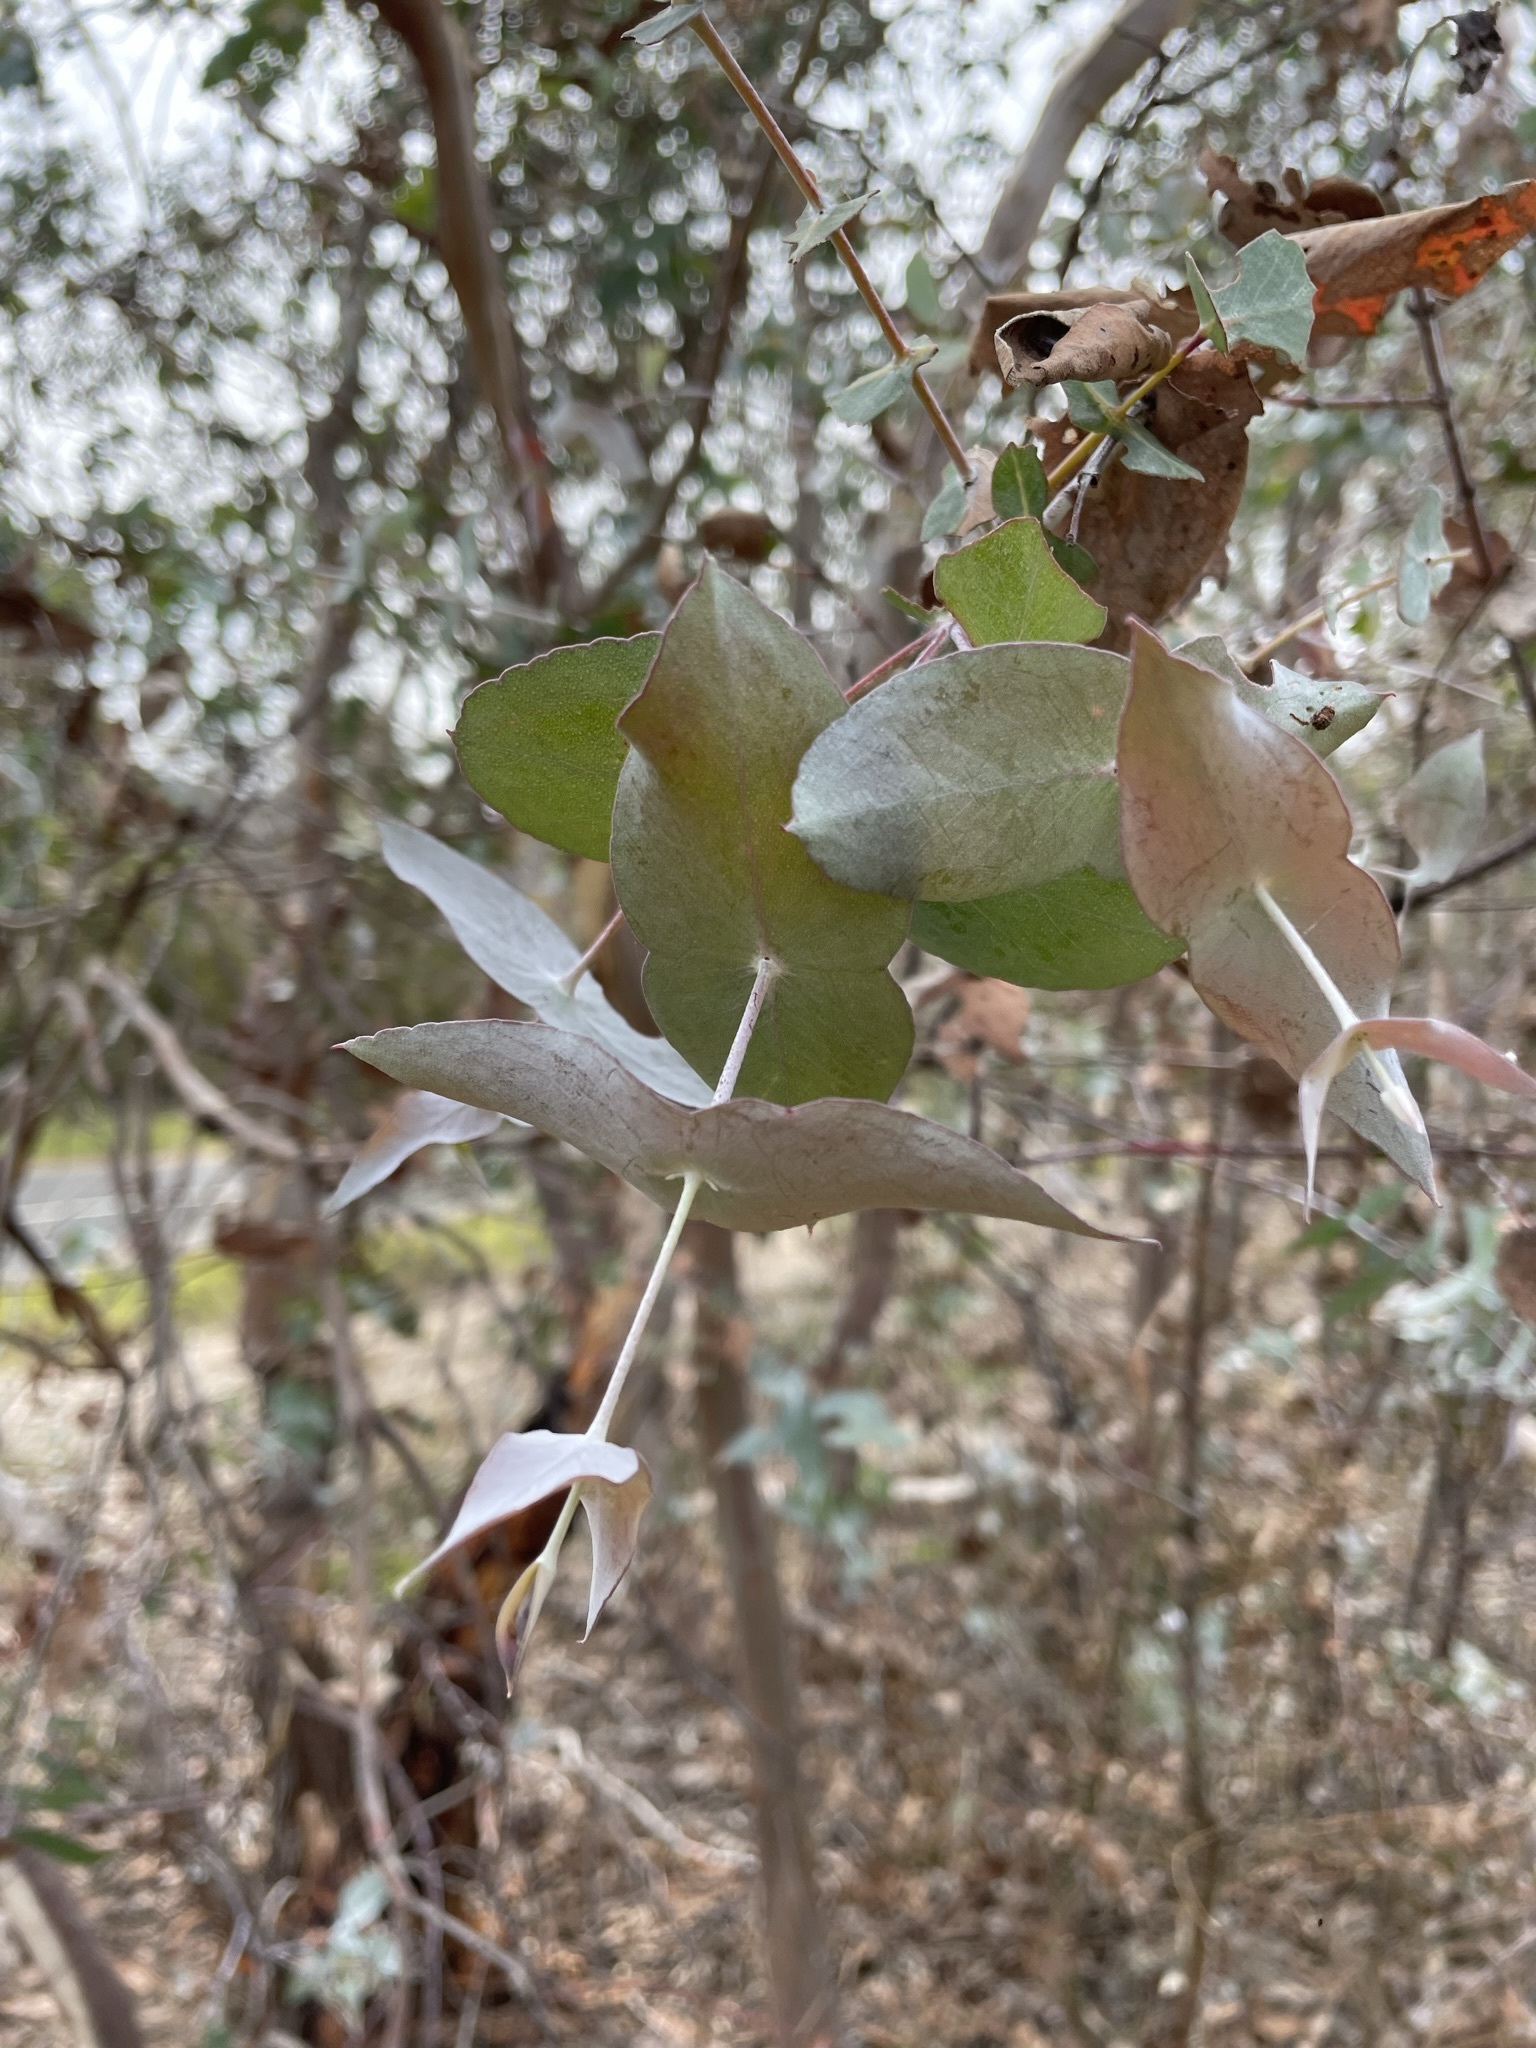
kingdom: Plantae
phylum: Tracheophyta
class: Magnoliopsida
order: Myrtales
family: Myrtaceae
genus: Eucalyptus
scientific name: Eucalyptus tenuiramis
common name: Silver peppermint
